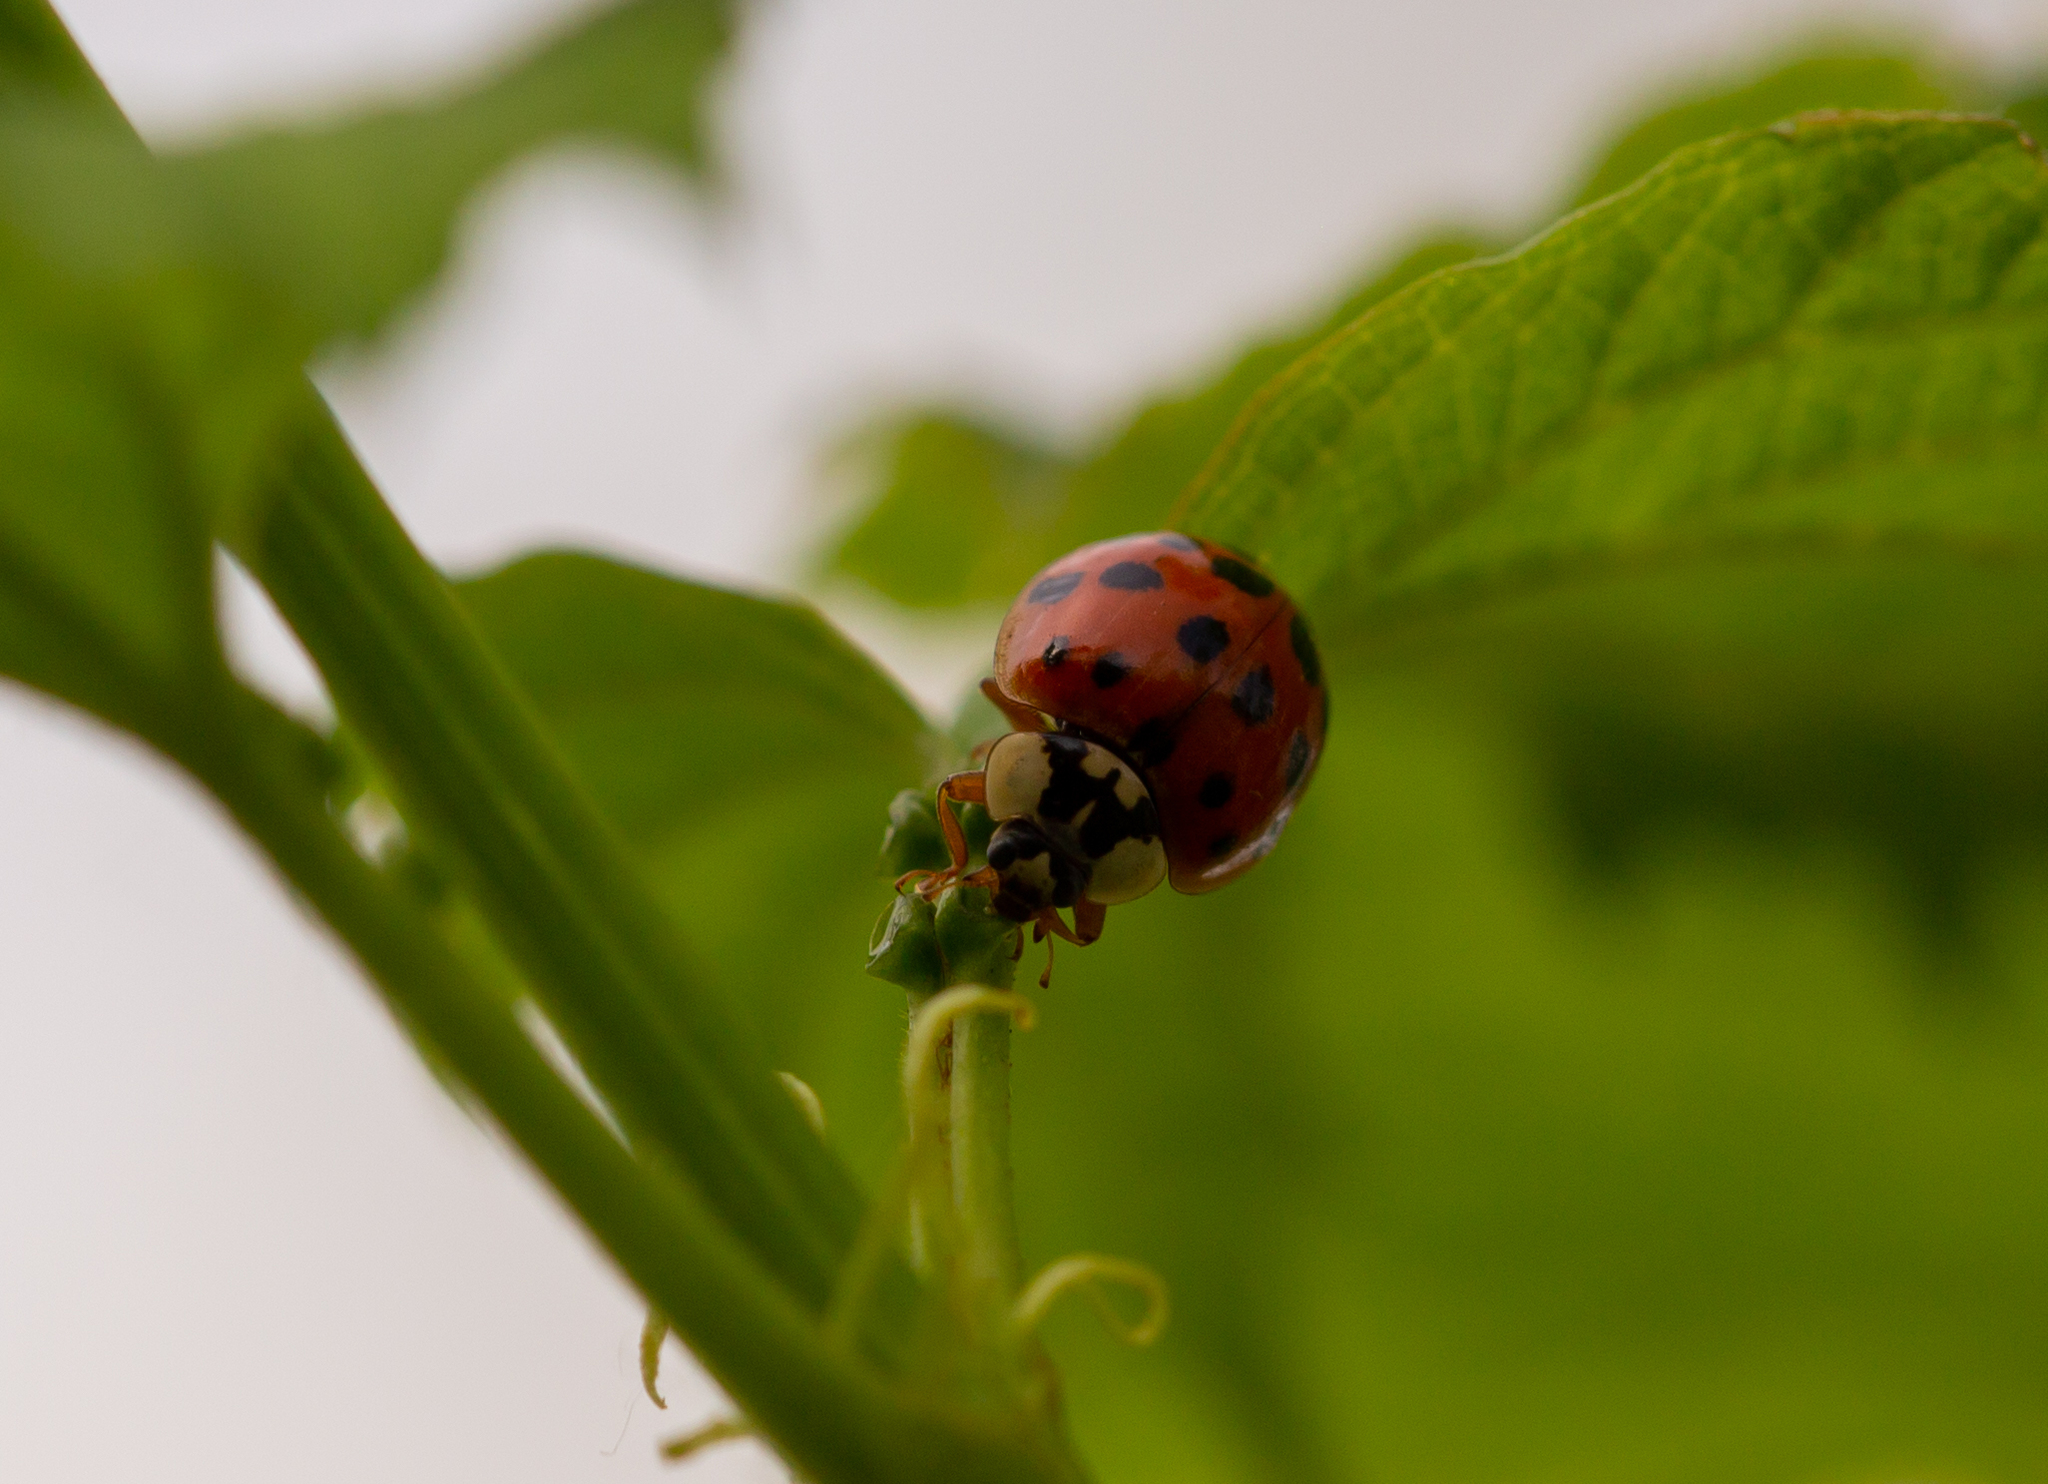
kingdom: Animalia
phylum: Arthropoda
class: Insecta
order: Coleoptera
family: Coccinellidae
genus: Harmonia
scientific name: Harmonia axyridis
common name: Harlequin ladybird
